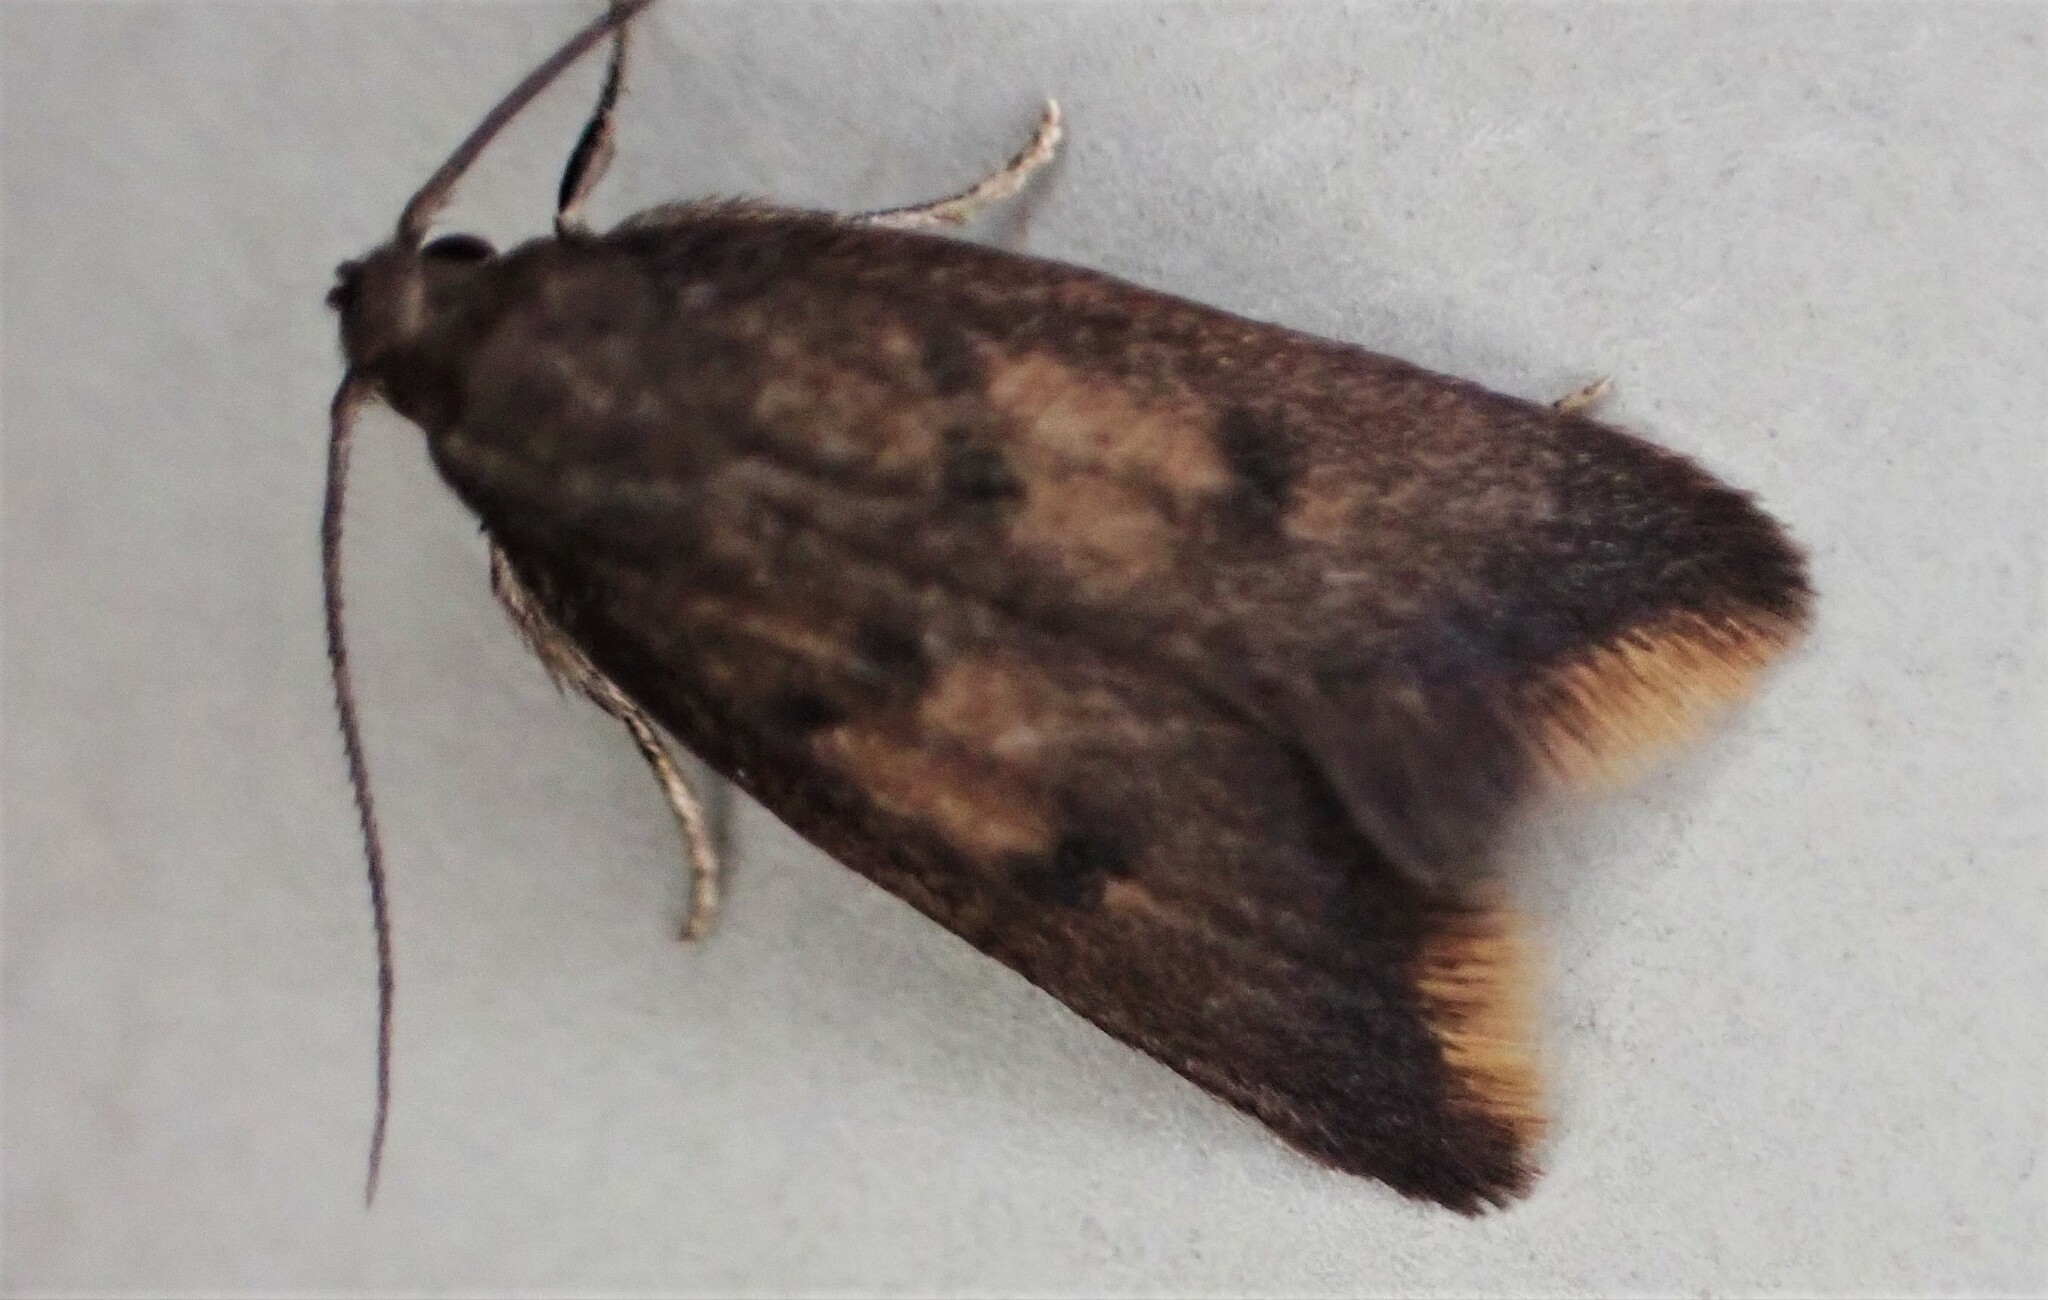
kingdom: Animalia
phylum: Arthropoda
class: Insecta
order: Lepidoptera
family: Oecophoridae
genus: Tachystola
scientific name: Tachystola acroxantha
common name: Ruddy streak
